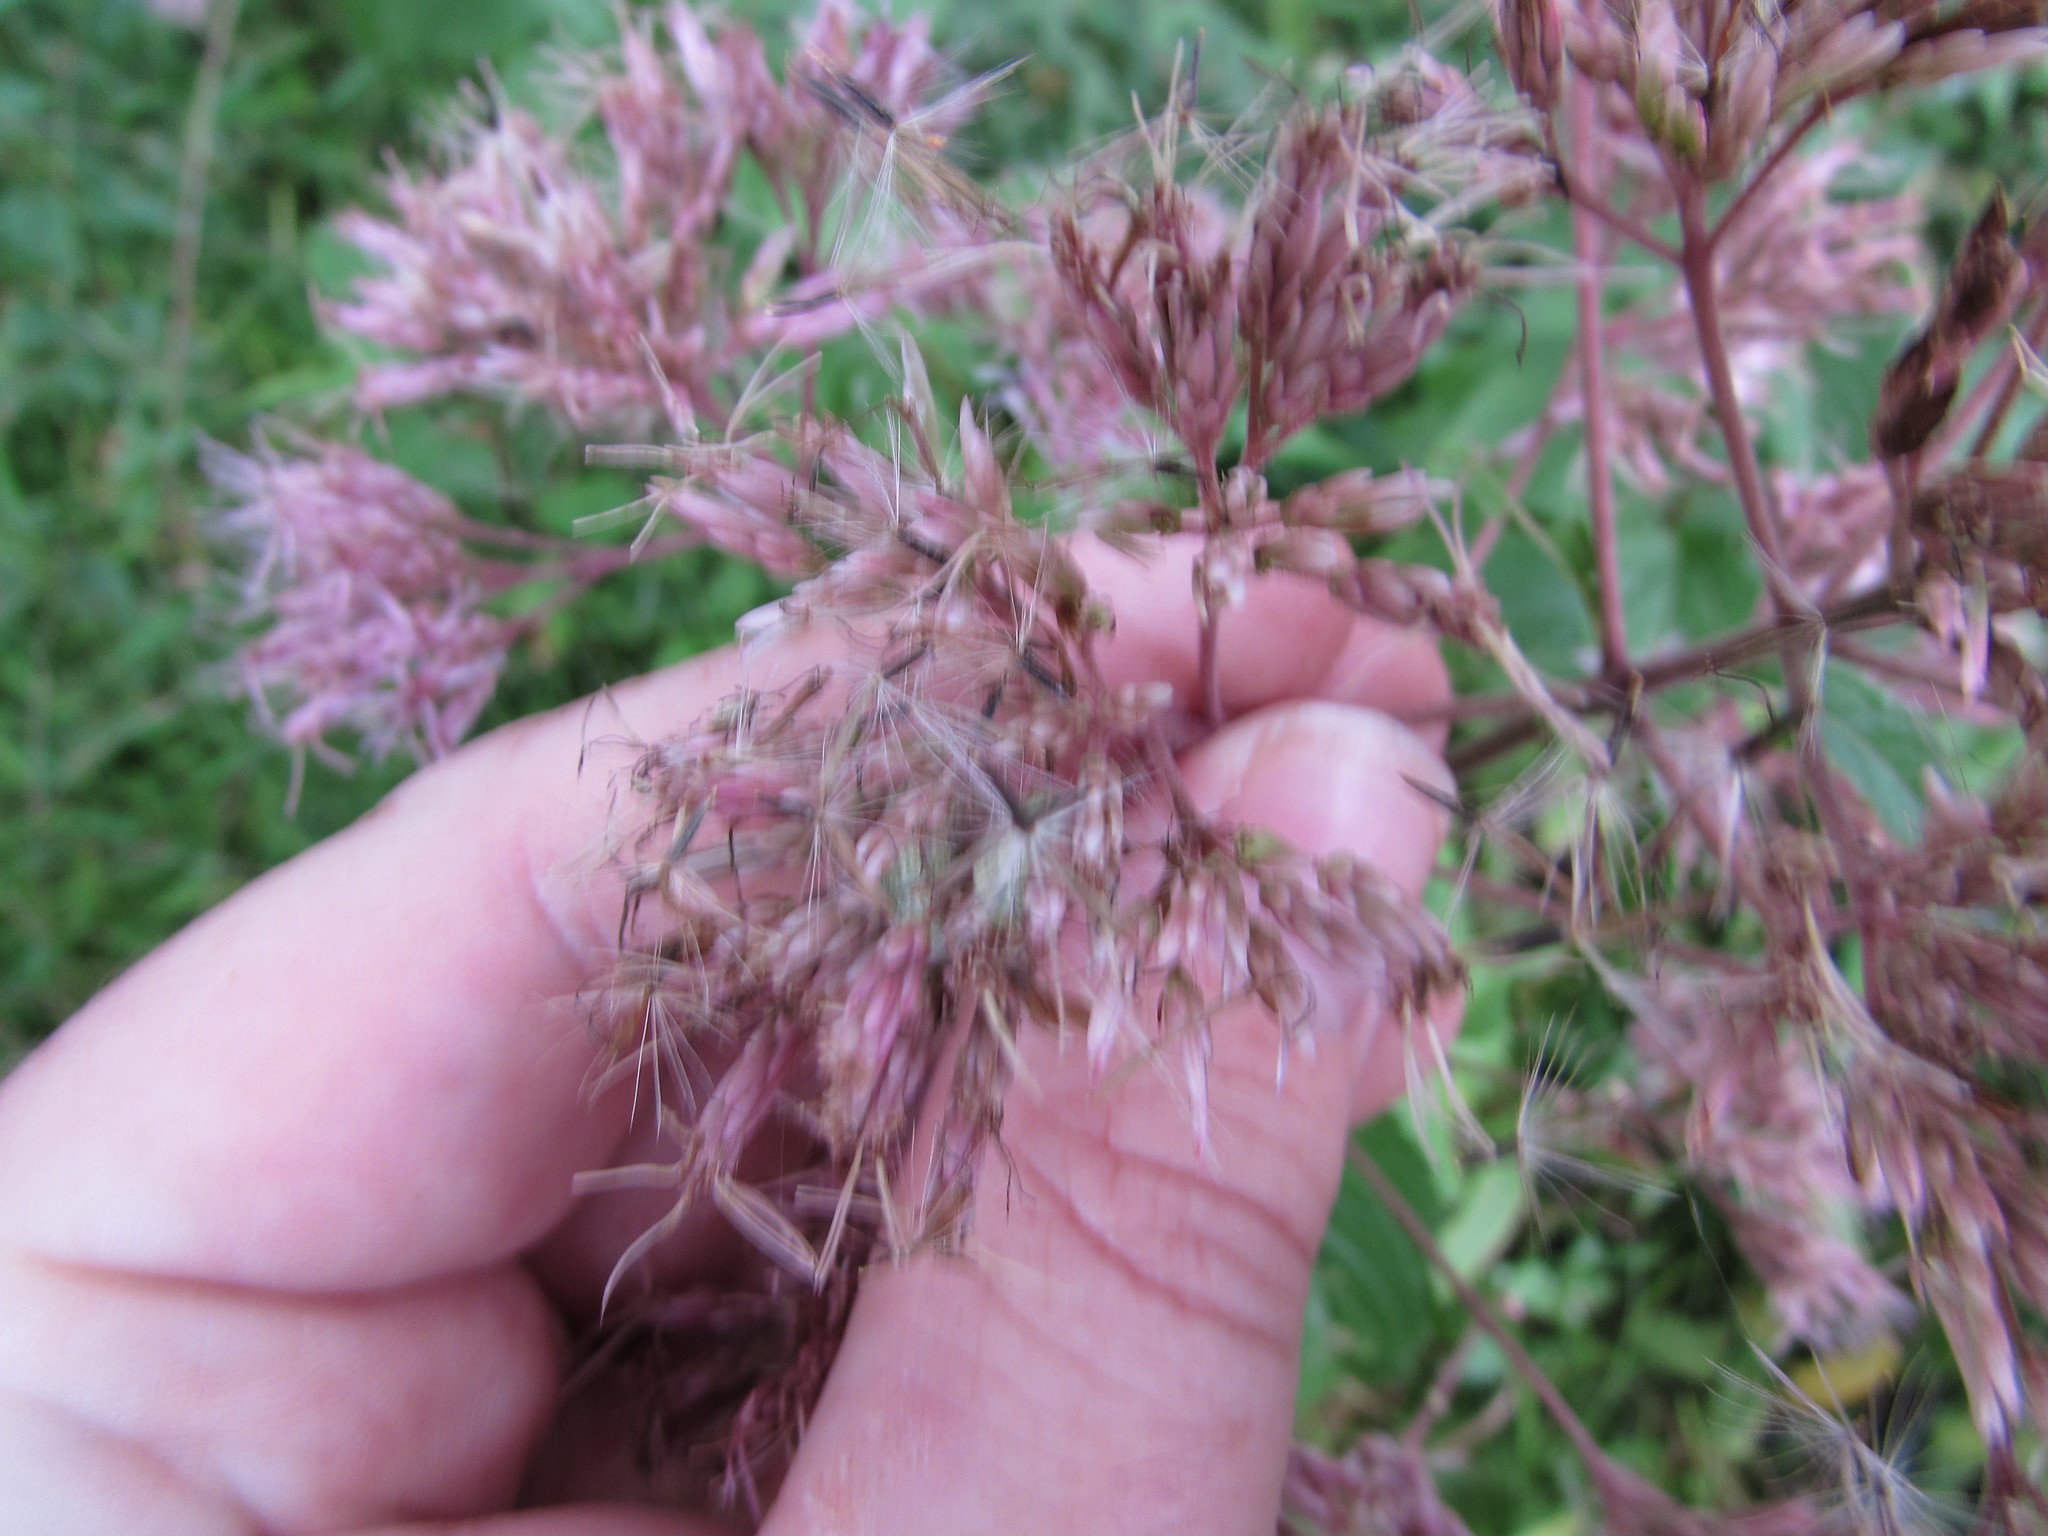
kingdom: Plantae
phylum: Tracheophyta
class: Magnoliopsida
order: Asterales
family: Asteraceae
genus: Eutrochium
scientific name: Eutrochium dubium
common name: Coastal plain joe pye weed
